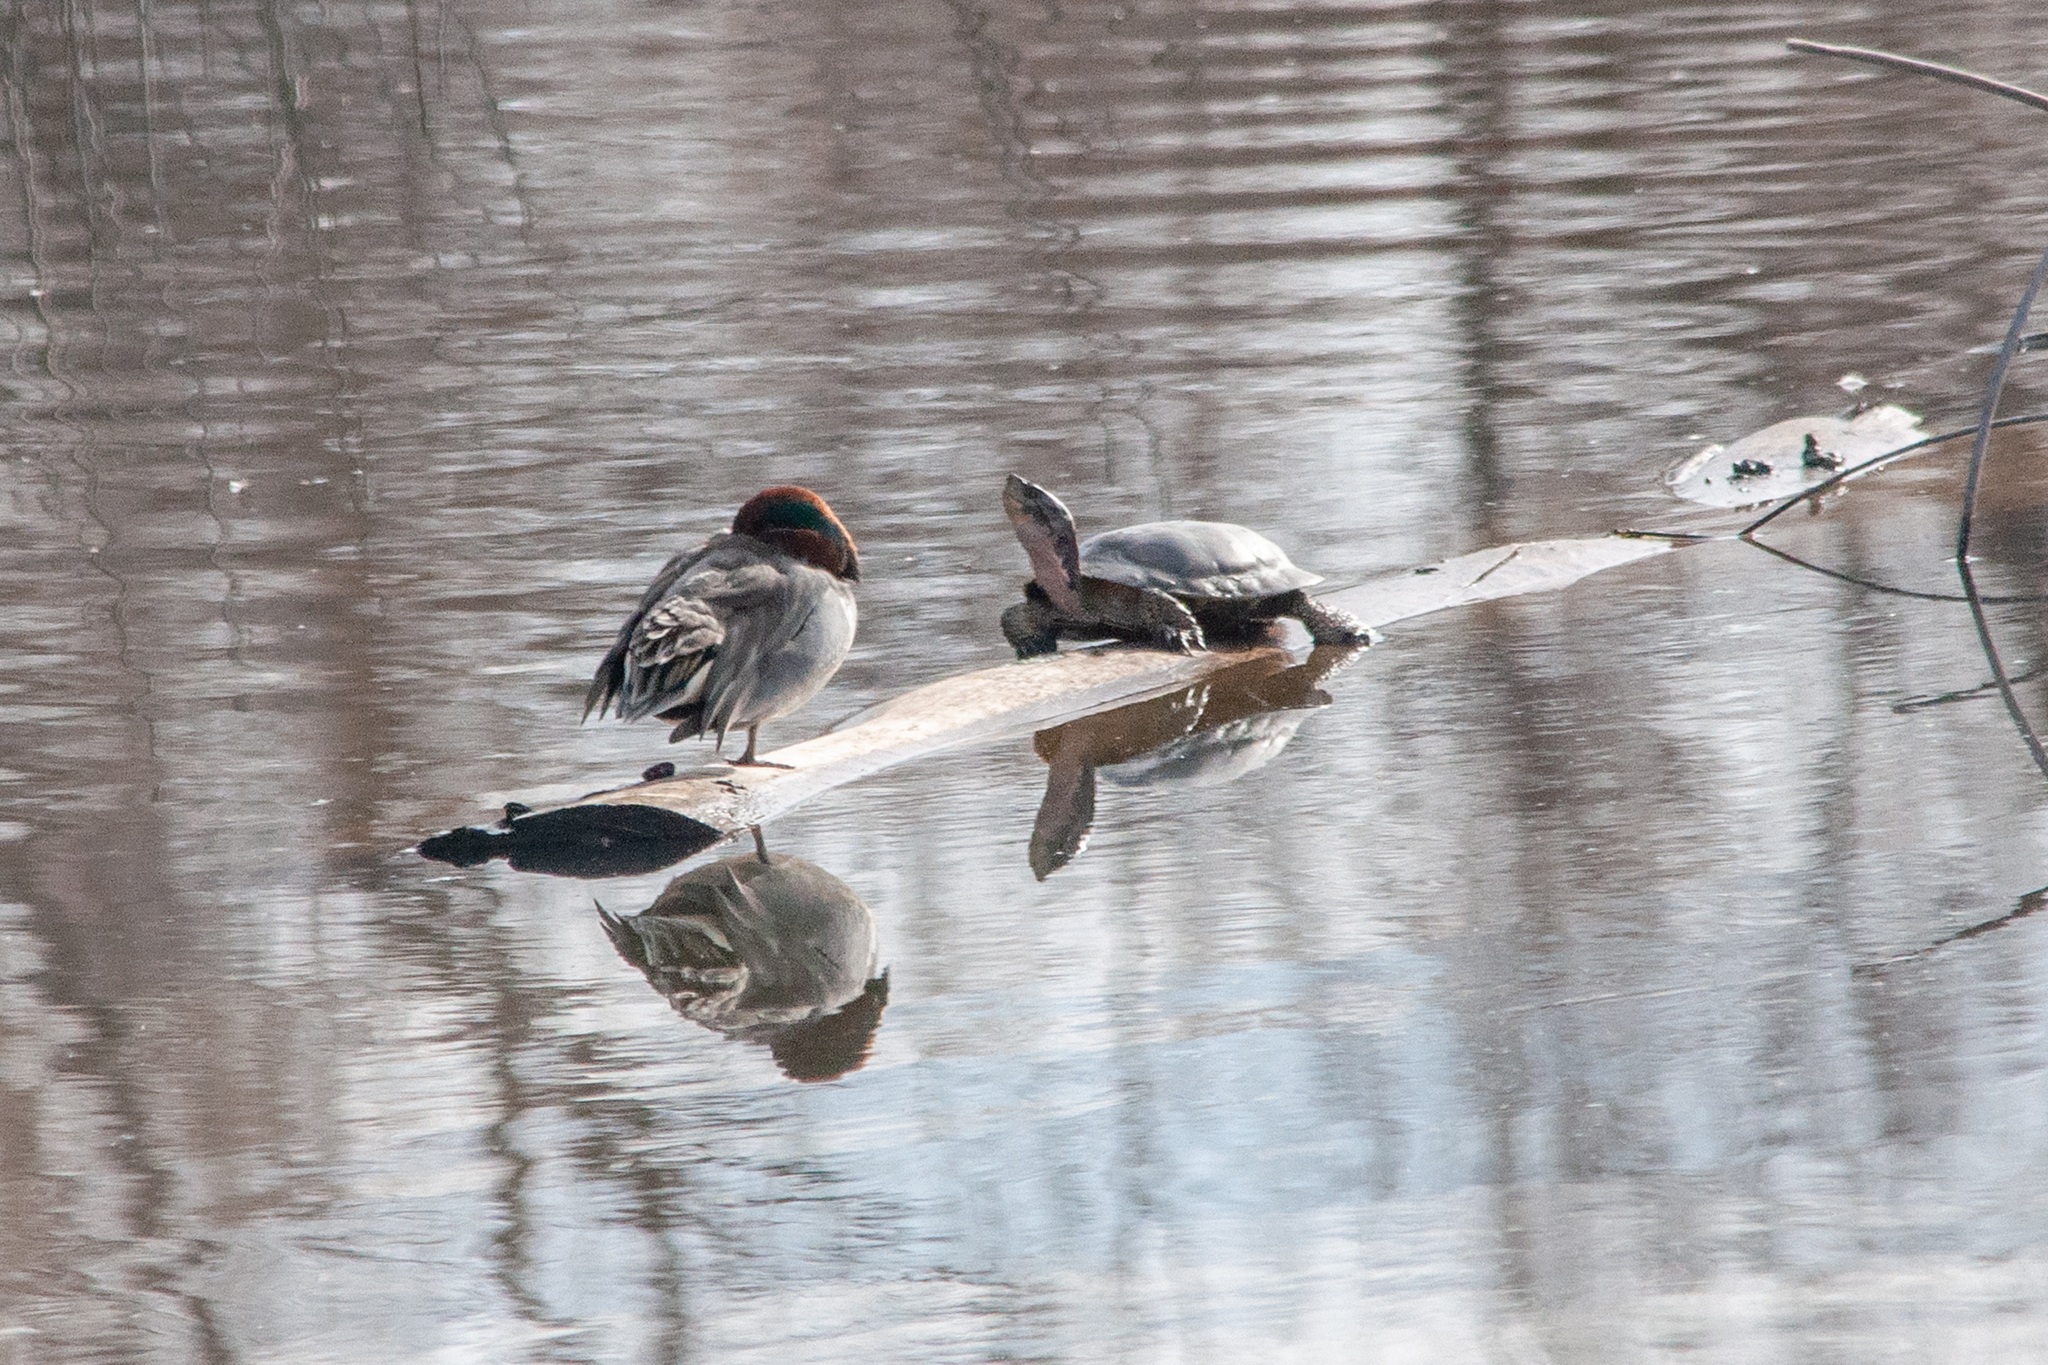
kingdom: Animalia
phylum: Chordata
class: Testudines
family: Emydidae
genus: Actinemys
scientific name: Actinemys marmorata
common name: Western pond turtle
